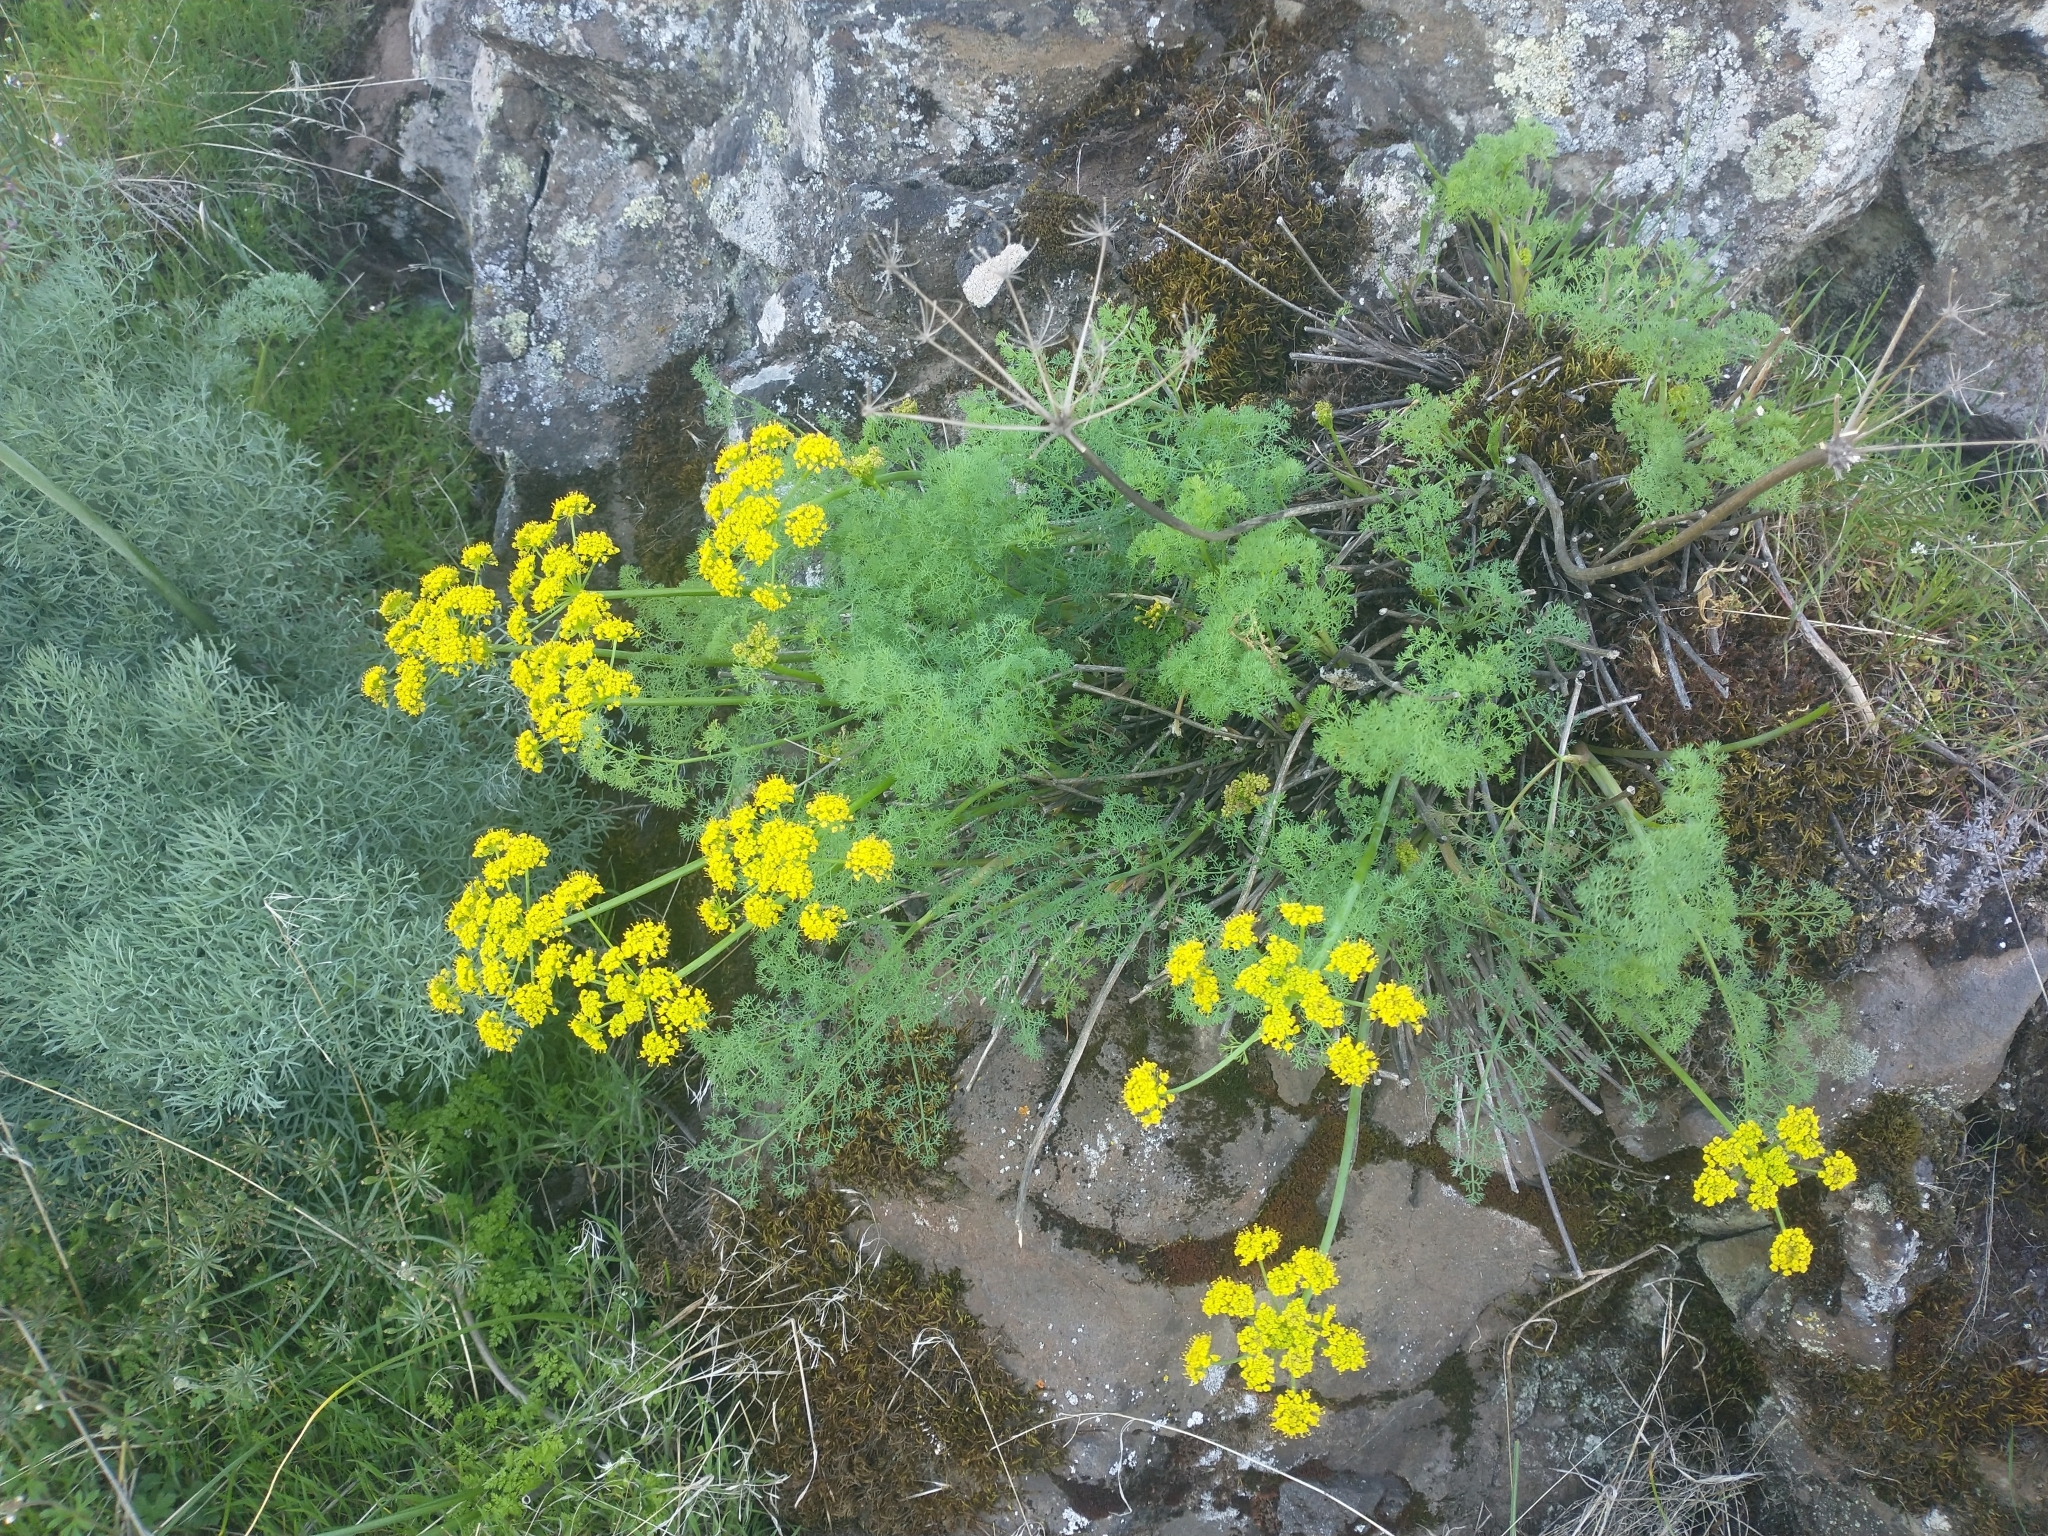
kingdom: Plantae
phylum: Tracheophyta
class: Magnoliopsida
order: Apiales
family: Apiaceae
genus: Lomatium
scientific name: Lomatium papilioniferum
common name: Butterfly lomatium
